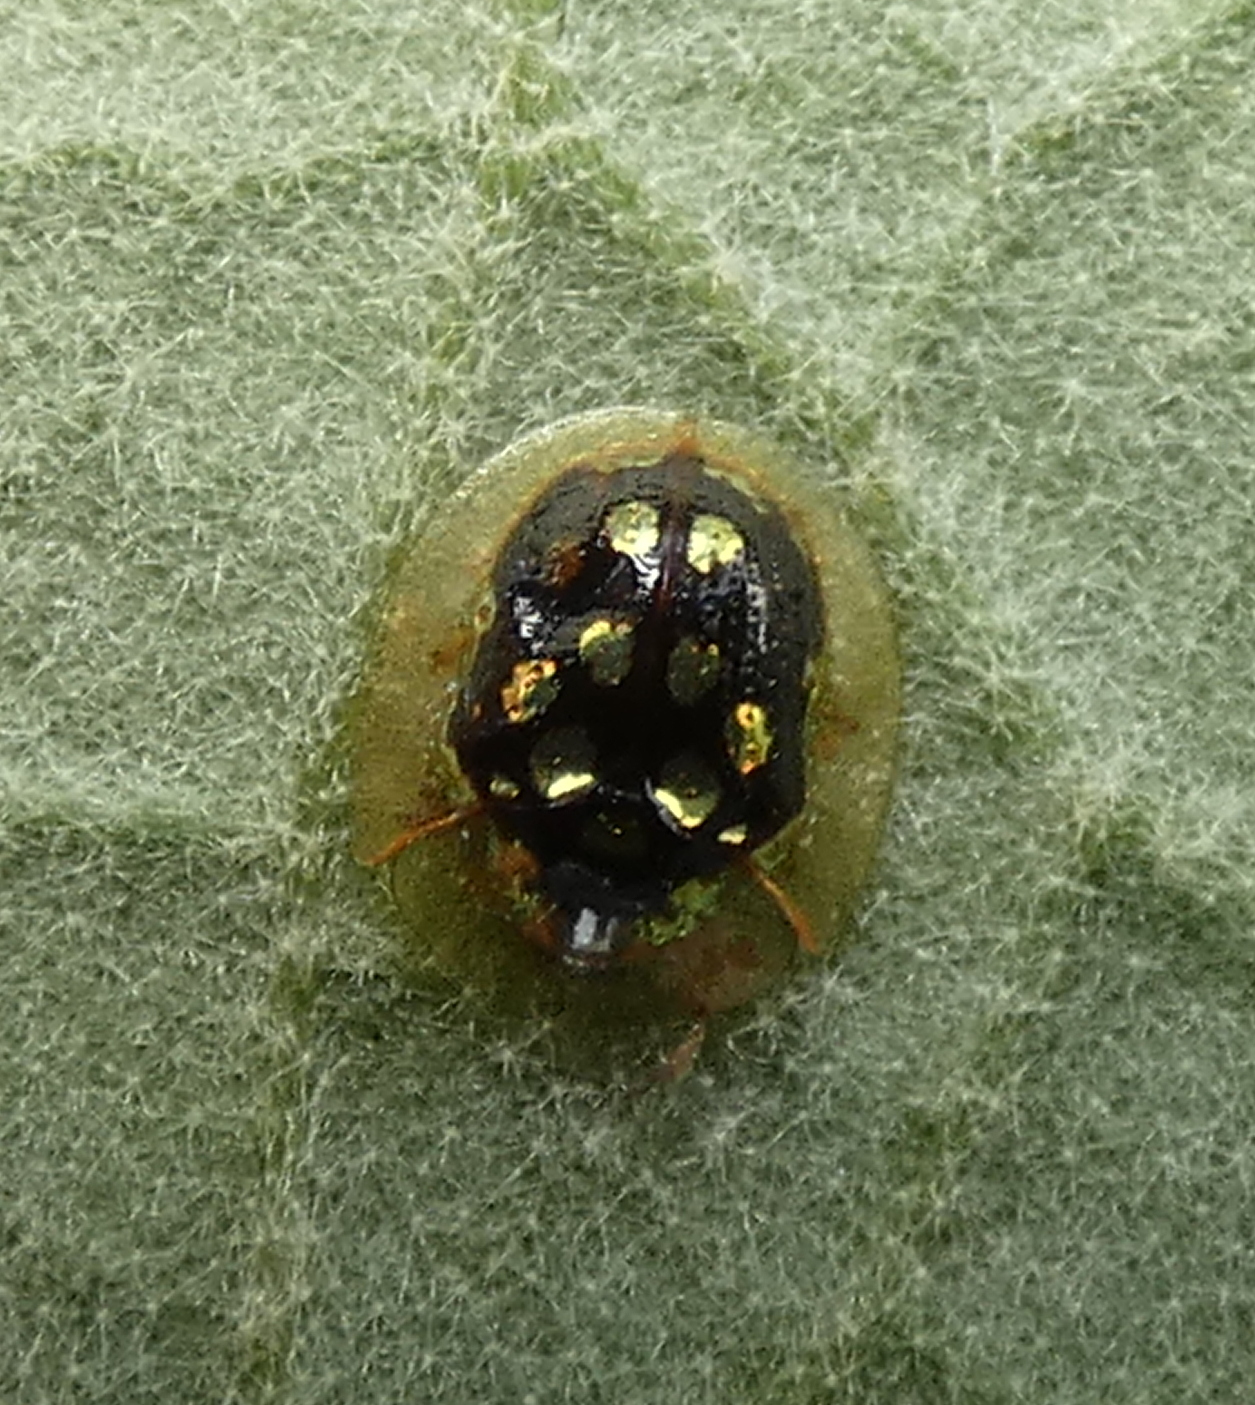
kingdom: Animalia
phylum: Arthropoda
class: Insecta
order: Coleoptera
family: Chrysomelidae
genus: Plagiometriona
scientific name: Plagiometriona microcera
